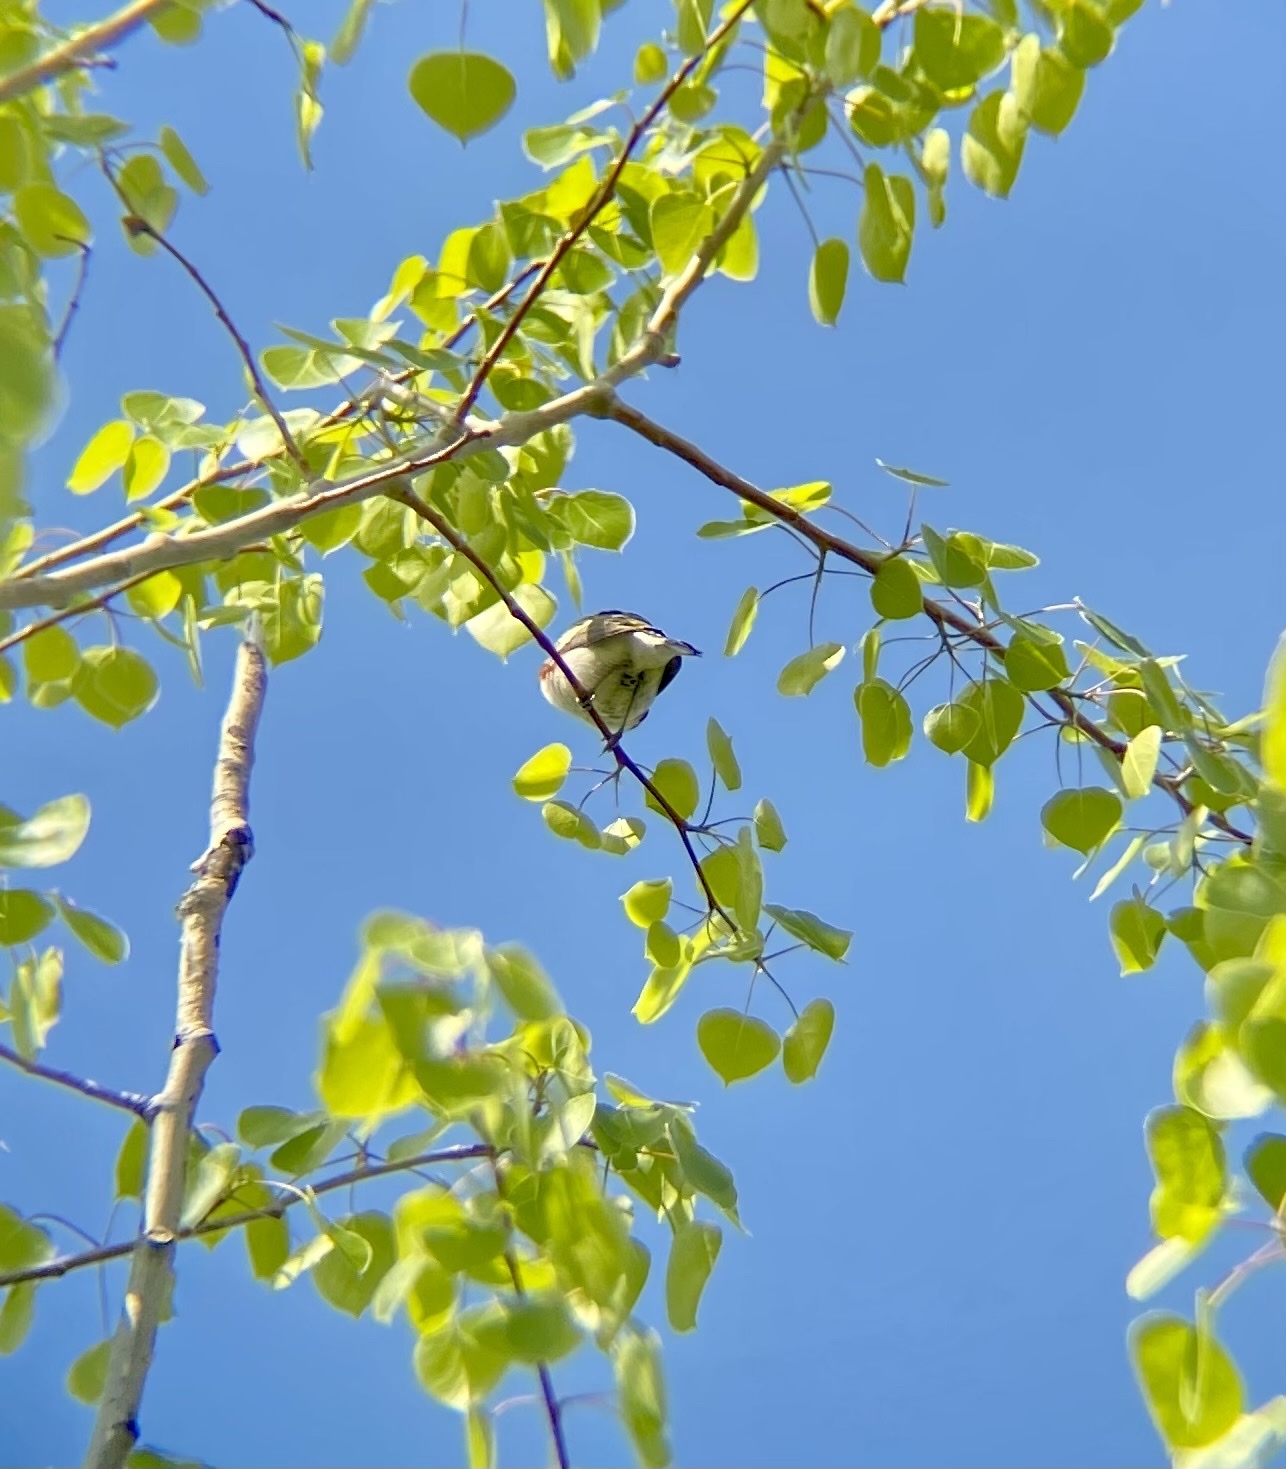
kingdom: Animalia
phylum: Chordata
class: Aves
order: Passeriformes
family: Parulidae
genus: Setophaga
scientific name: Setophaga pensylvanica
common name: Chestnut-sided warbler
